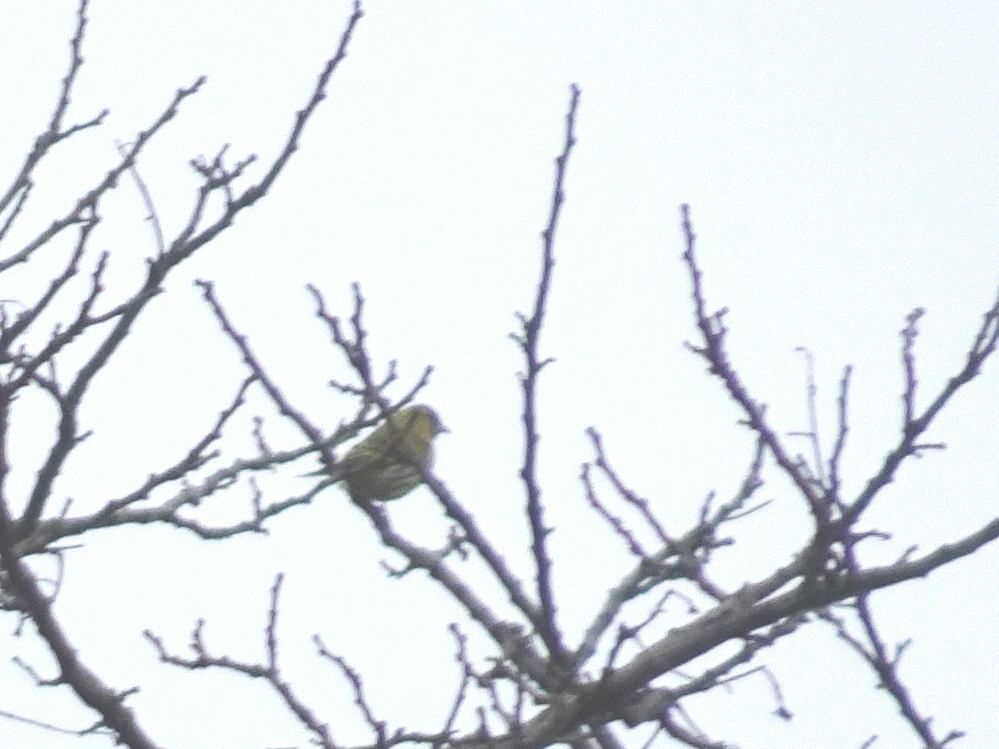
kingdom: Animalia
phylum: Chordata
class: Aves
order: Passeriformes
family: Fringillidae
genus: Spinus
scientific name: Spinus spinus
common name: Eurasian siskin
